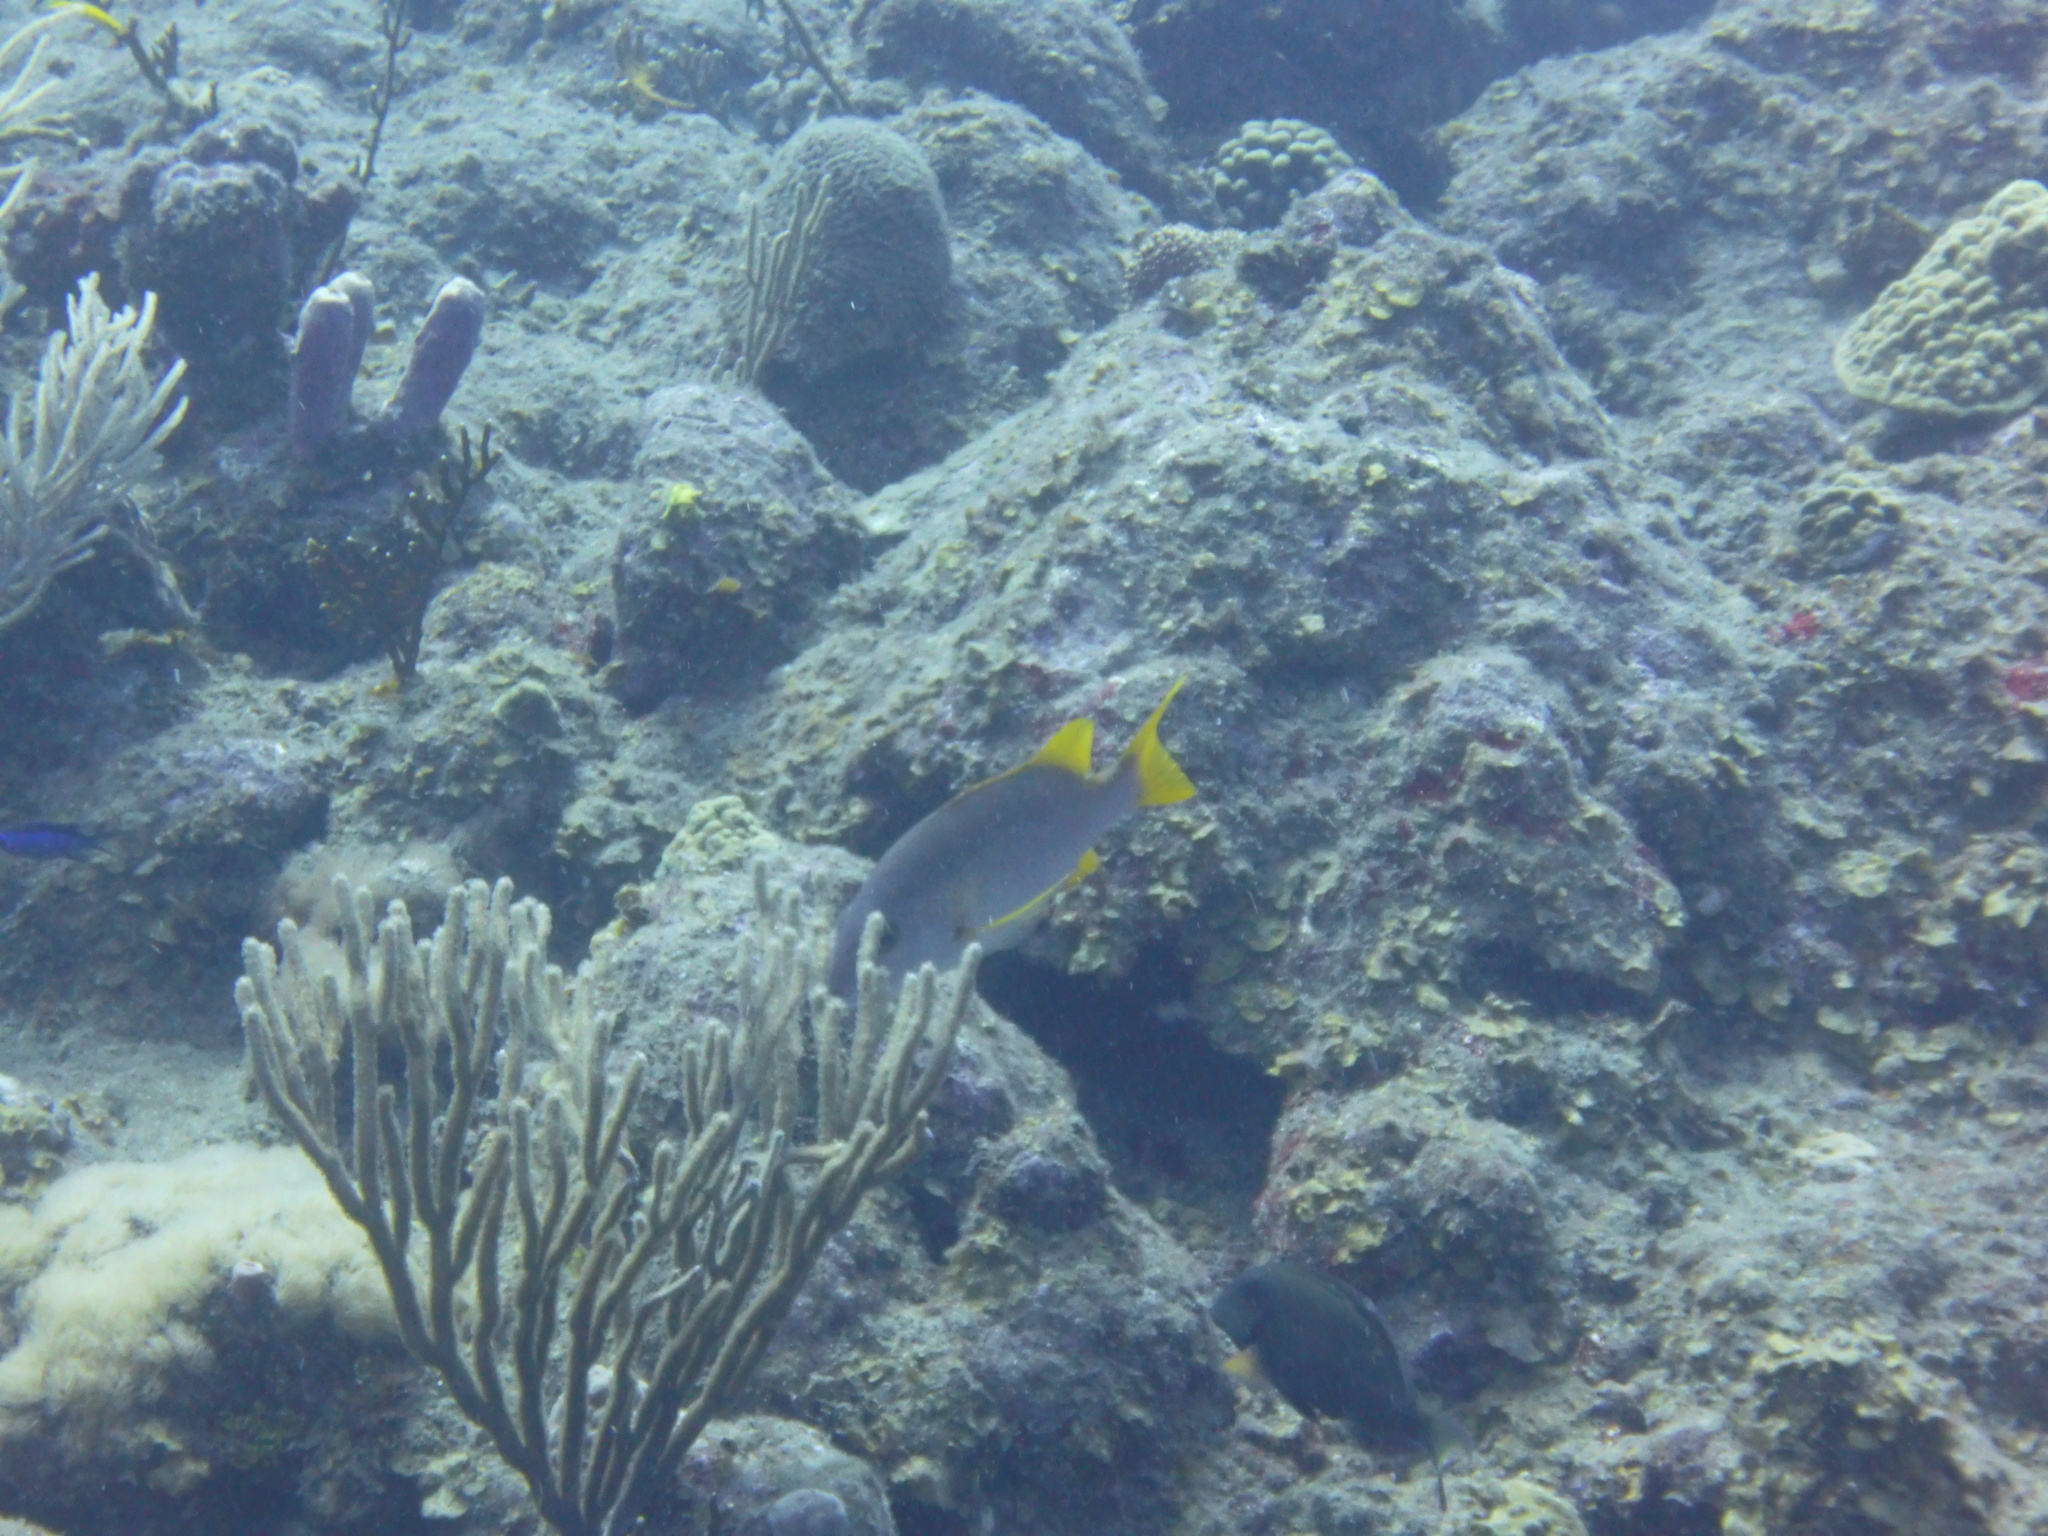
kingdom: Animalia
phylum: Chordata
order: Perciformes
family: Lutjanidae
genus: Lutjanus
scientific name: Lutjanus apodus
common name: Schoolmaster
